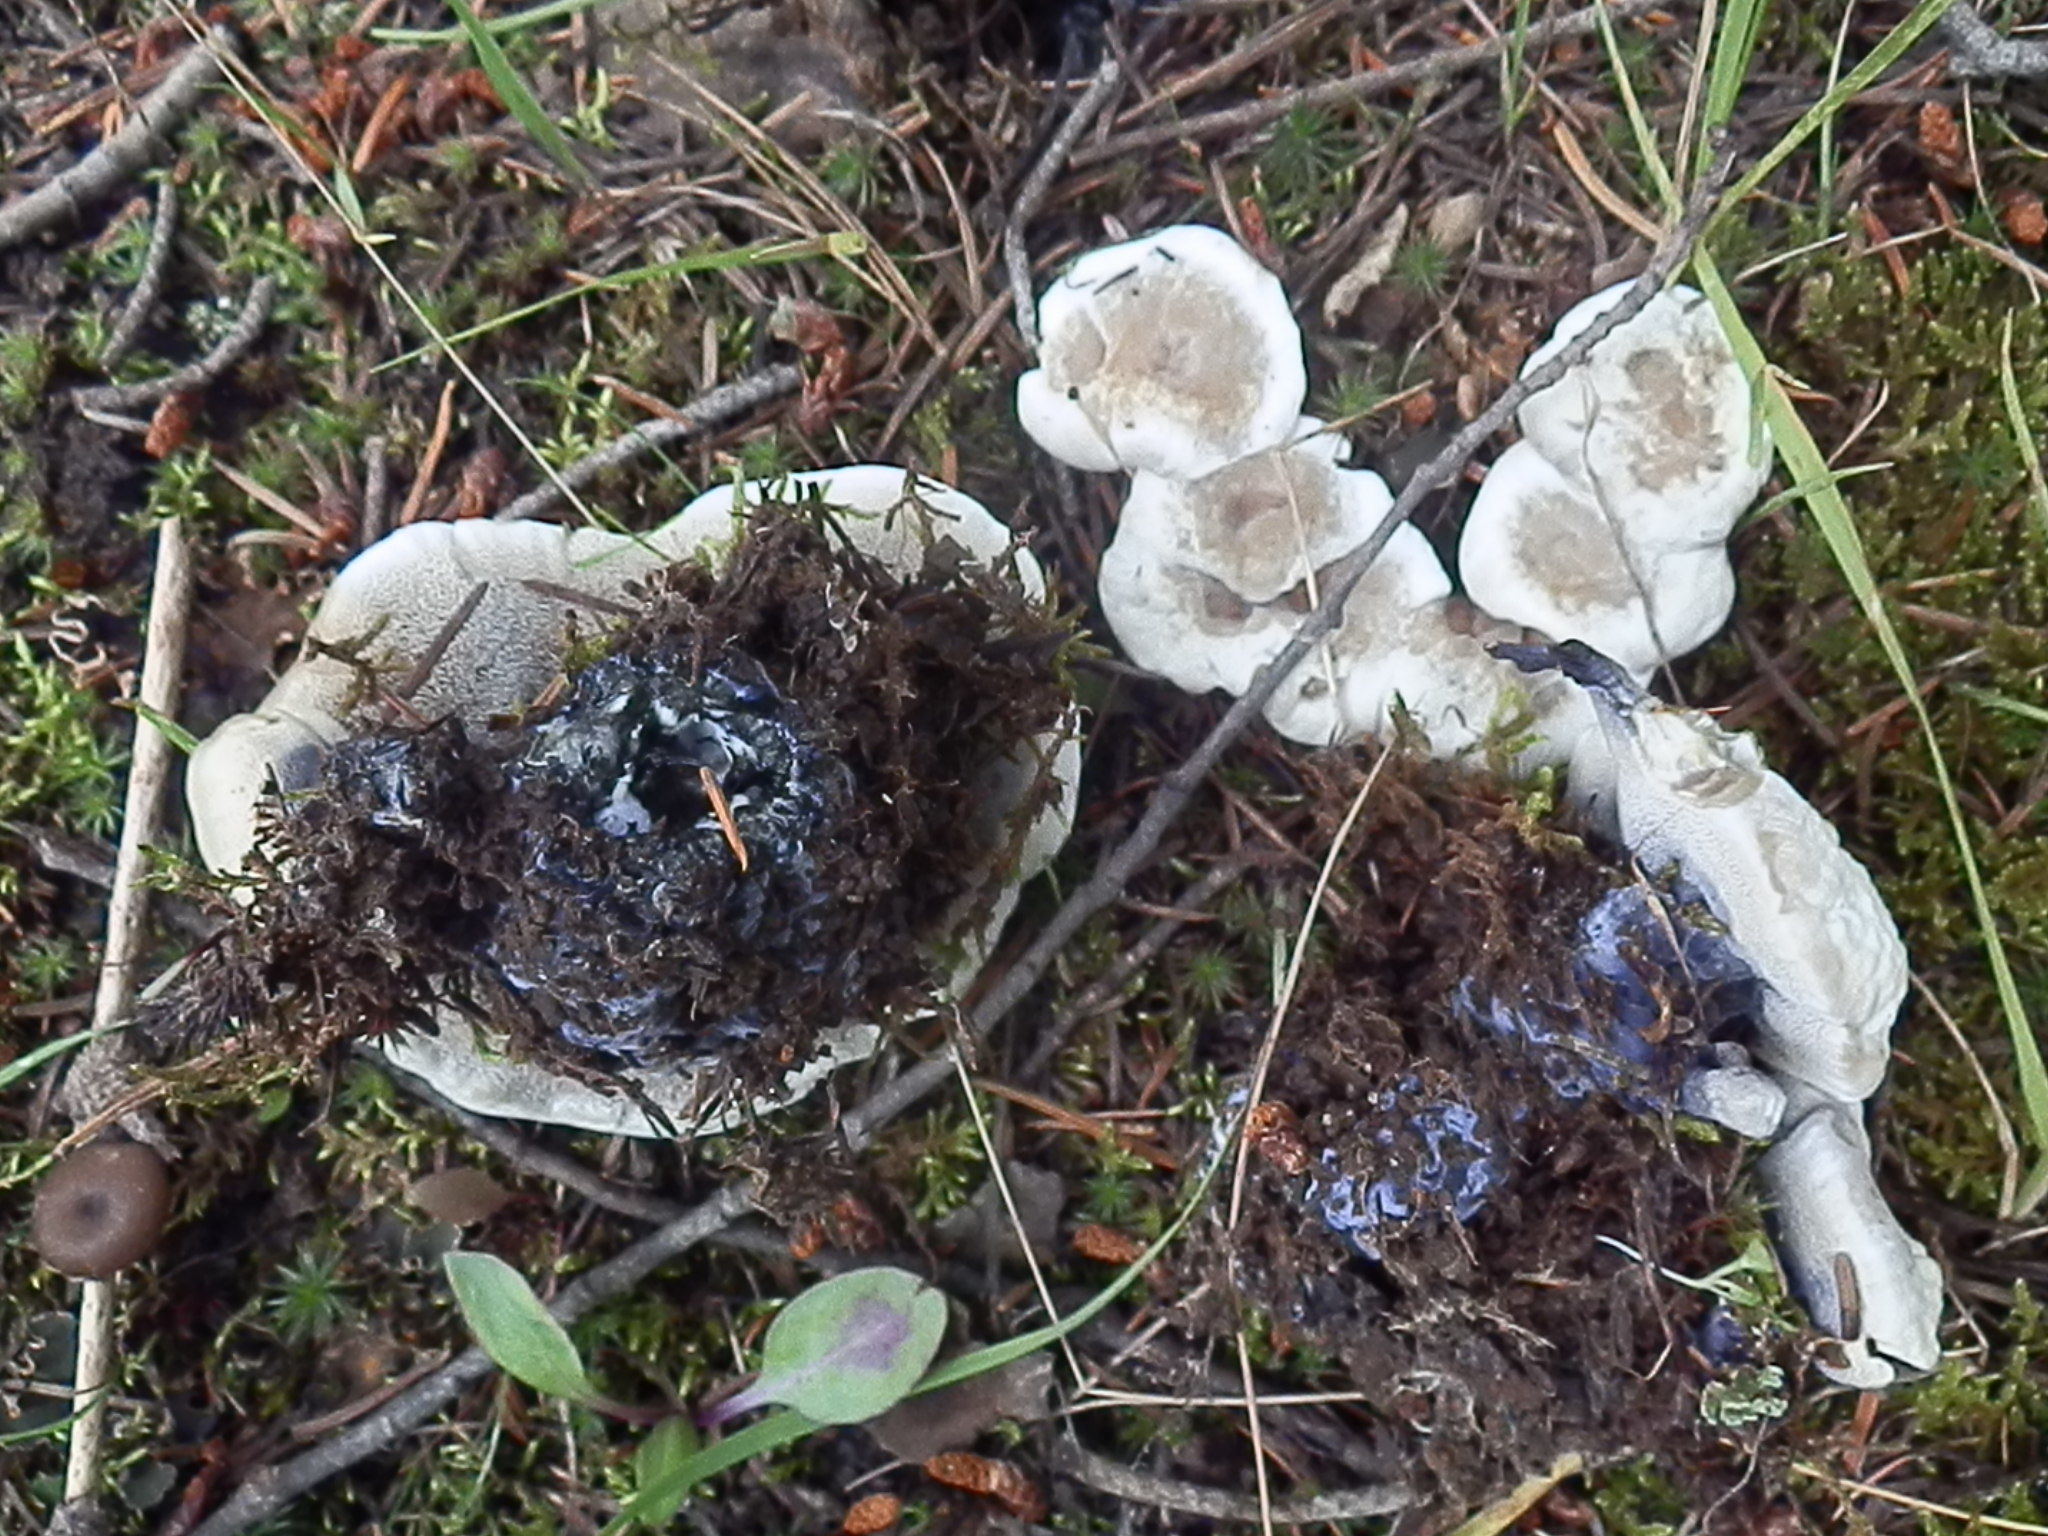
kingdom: Fungi
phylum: Basidiomycota
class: Agaricomycetes
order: Thelephorales
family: Bankeraceae
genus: Hydnellum
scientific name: Hydnellum suaveolens
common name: Sweetgrass hydnellum
